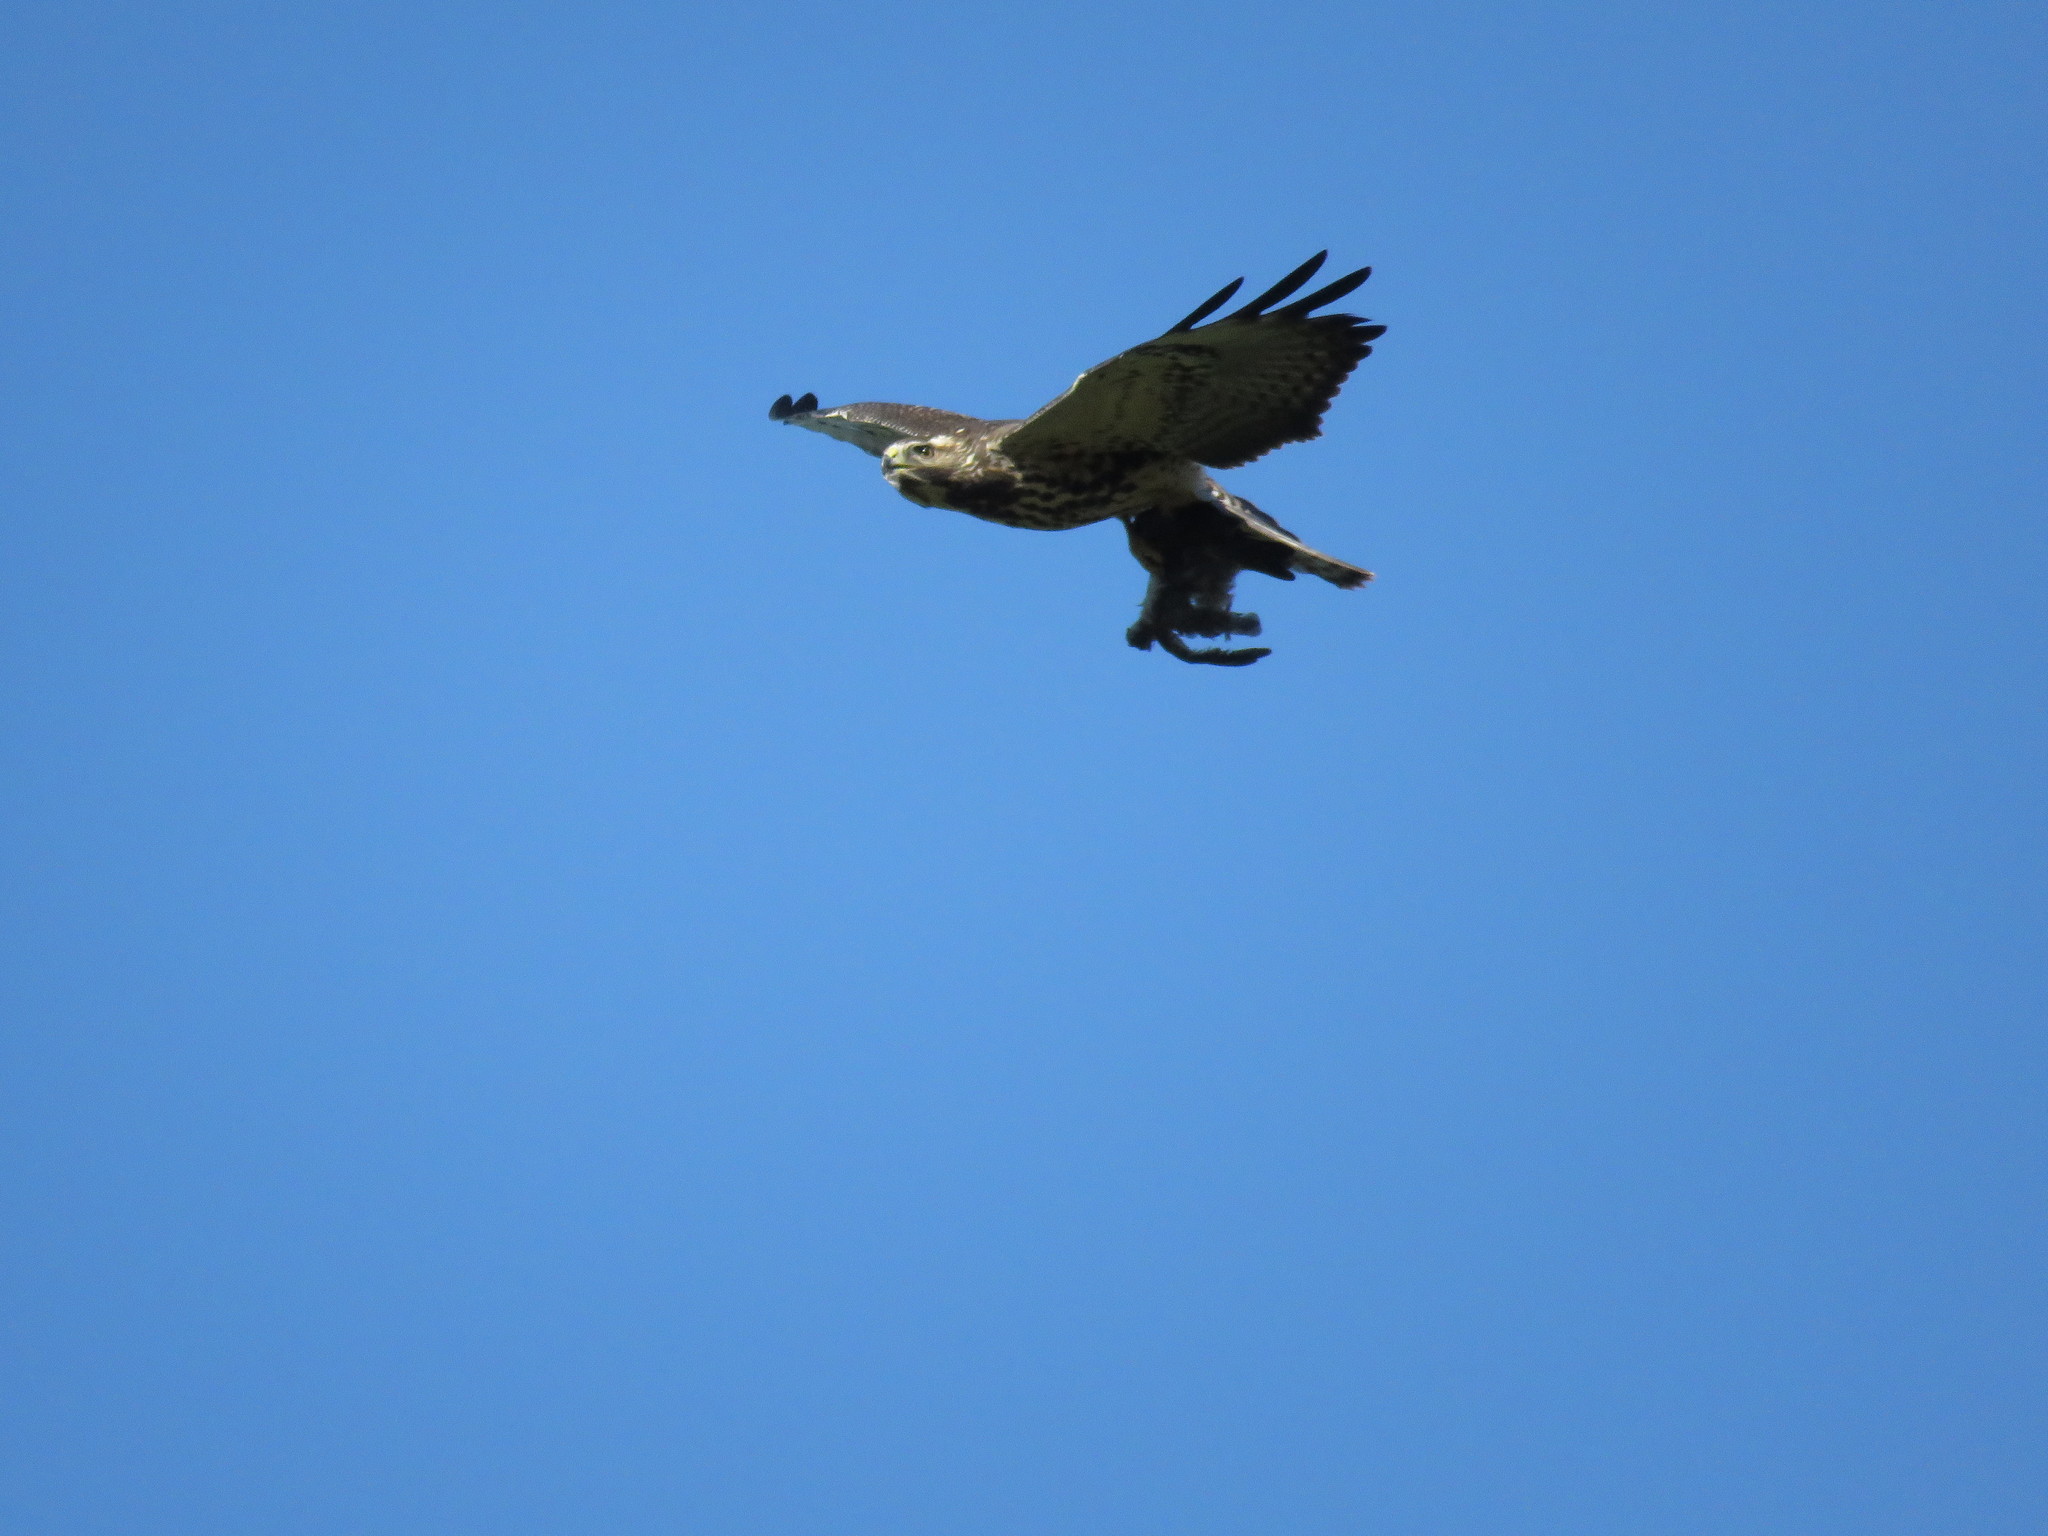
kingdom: Animalia
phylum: Chordata
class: Aves
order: Accipitriformes
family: Accipitridae
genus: Buteo
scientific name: Buteo swainsoni
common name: Swainson's hawk
